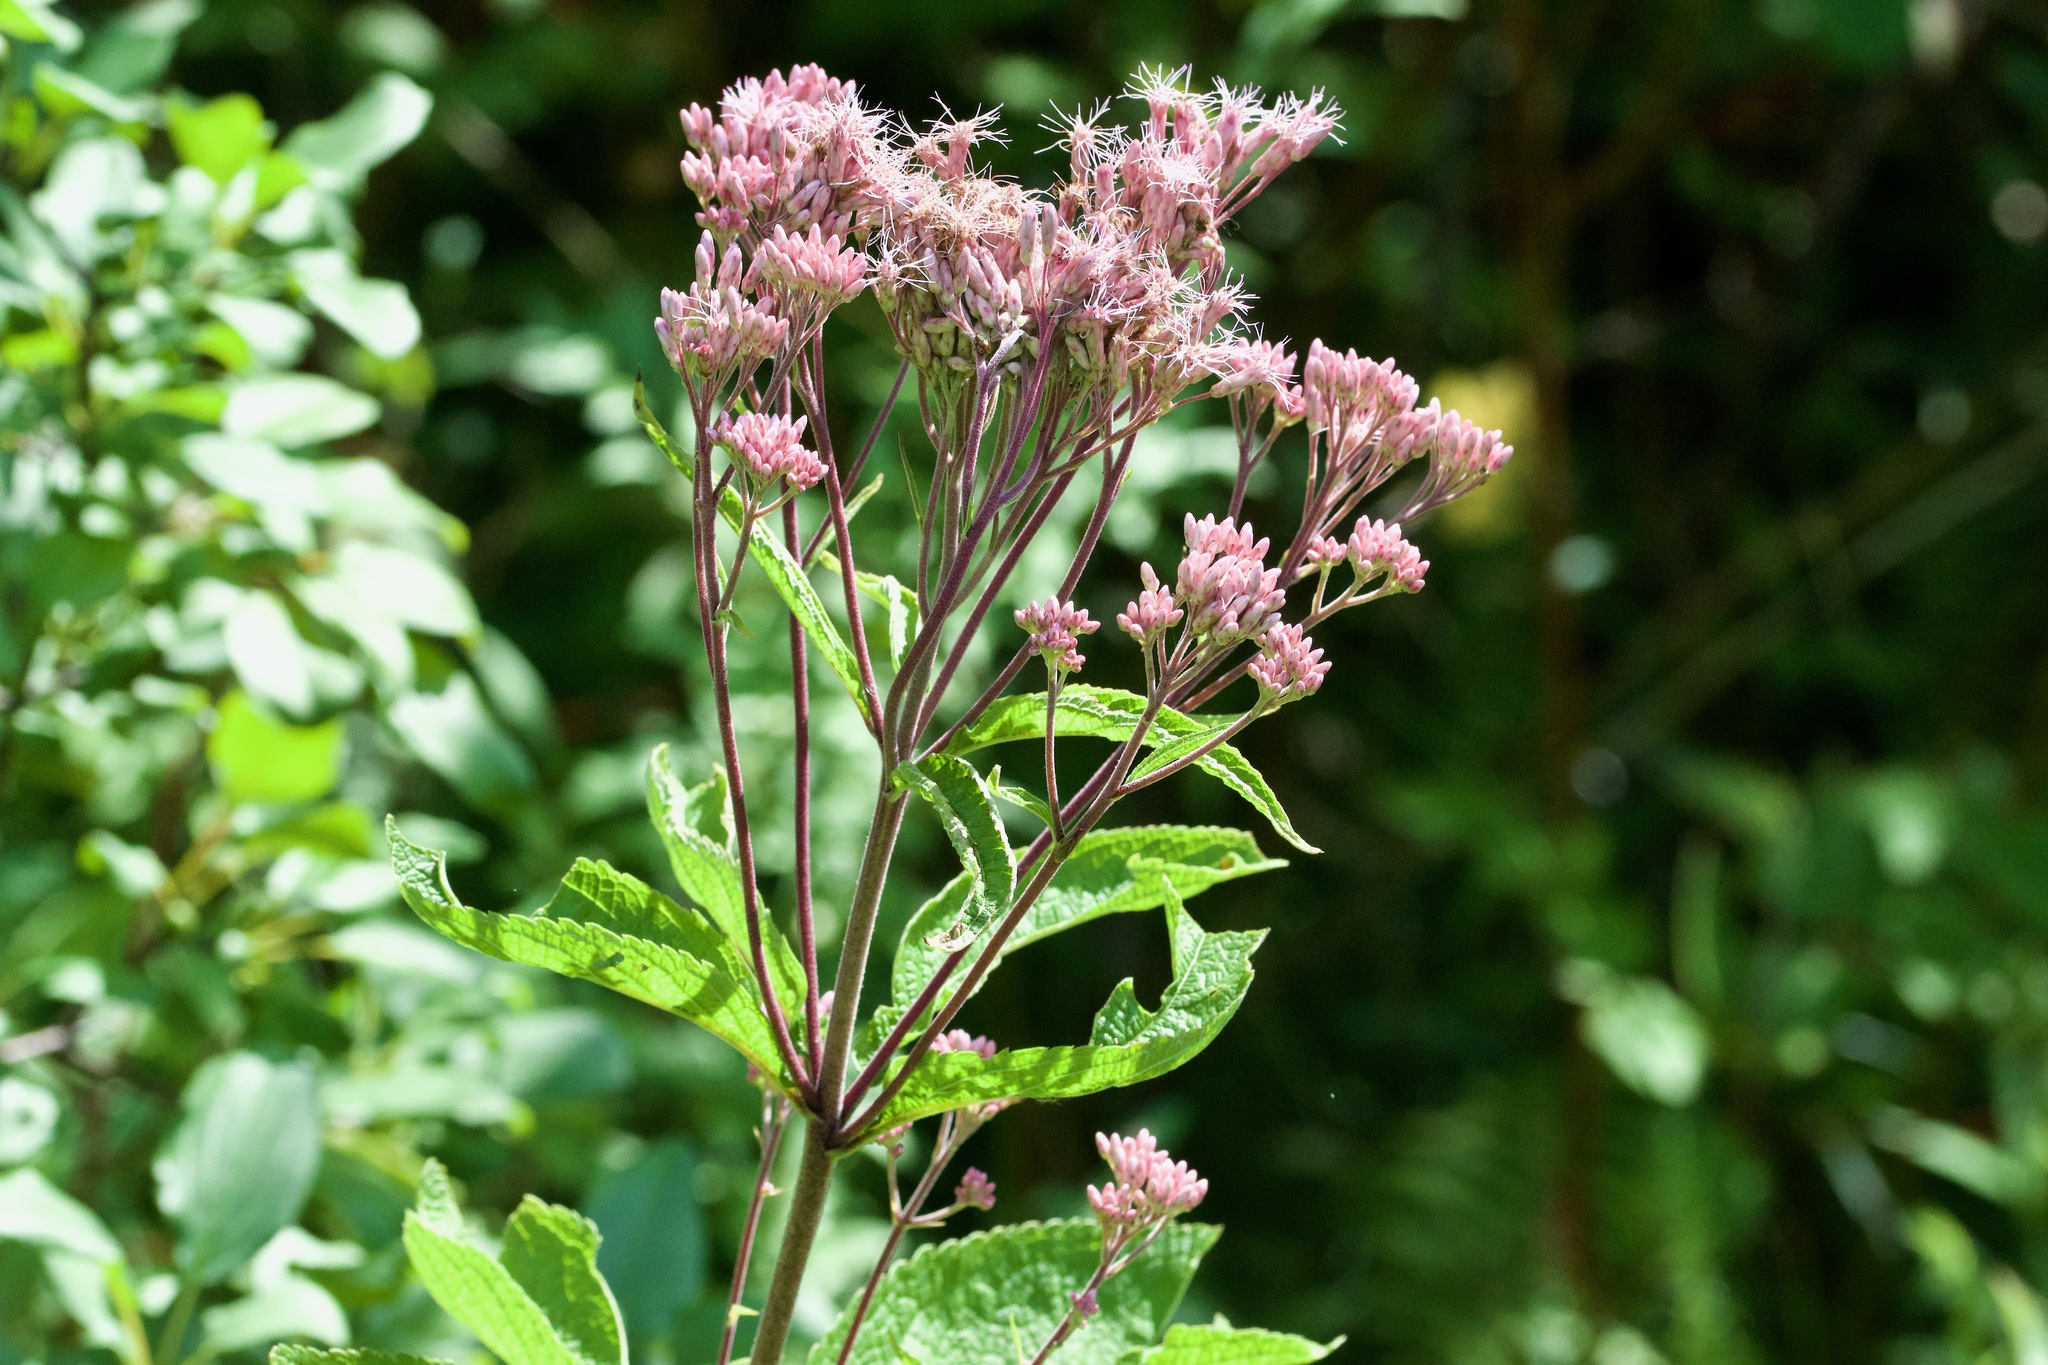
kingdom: Plantae
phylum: Tracheophyta
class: Magnoliopsida
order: Asterales
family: Asteraceae
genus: Eutrochium
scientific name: Eutrochium maculatum
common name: Spotted joe pye weed
